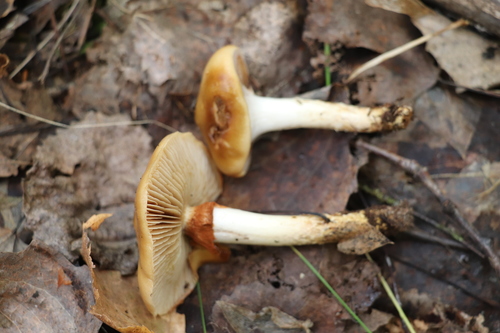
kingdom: Fungi
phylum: Basidiomycota
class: Agaricomycetes
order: Agaricales
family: Cortinariaceae
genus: Cortinarius
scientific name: Cortinarius trivialis
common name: Girdled webcap
